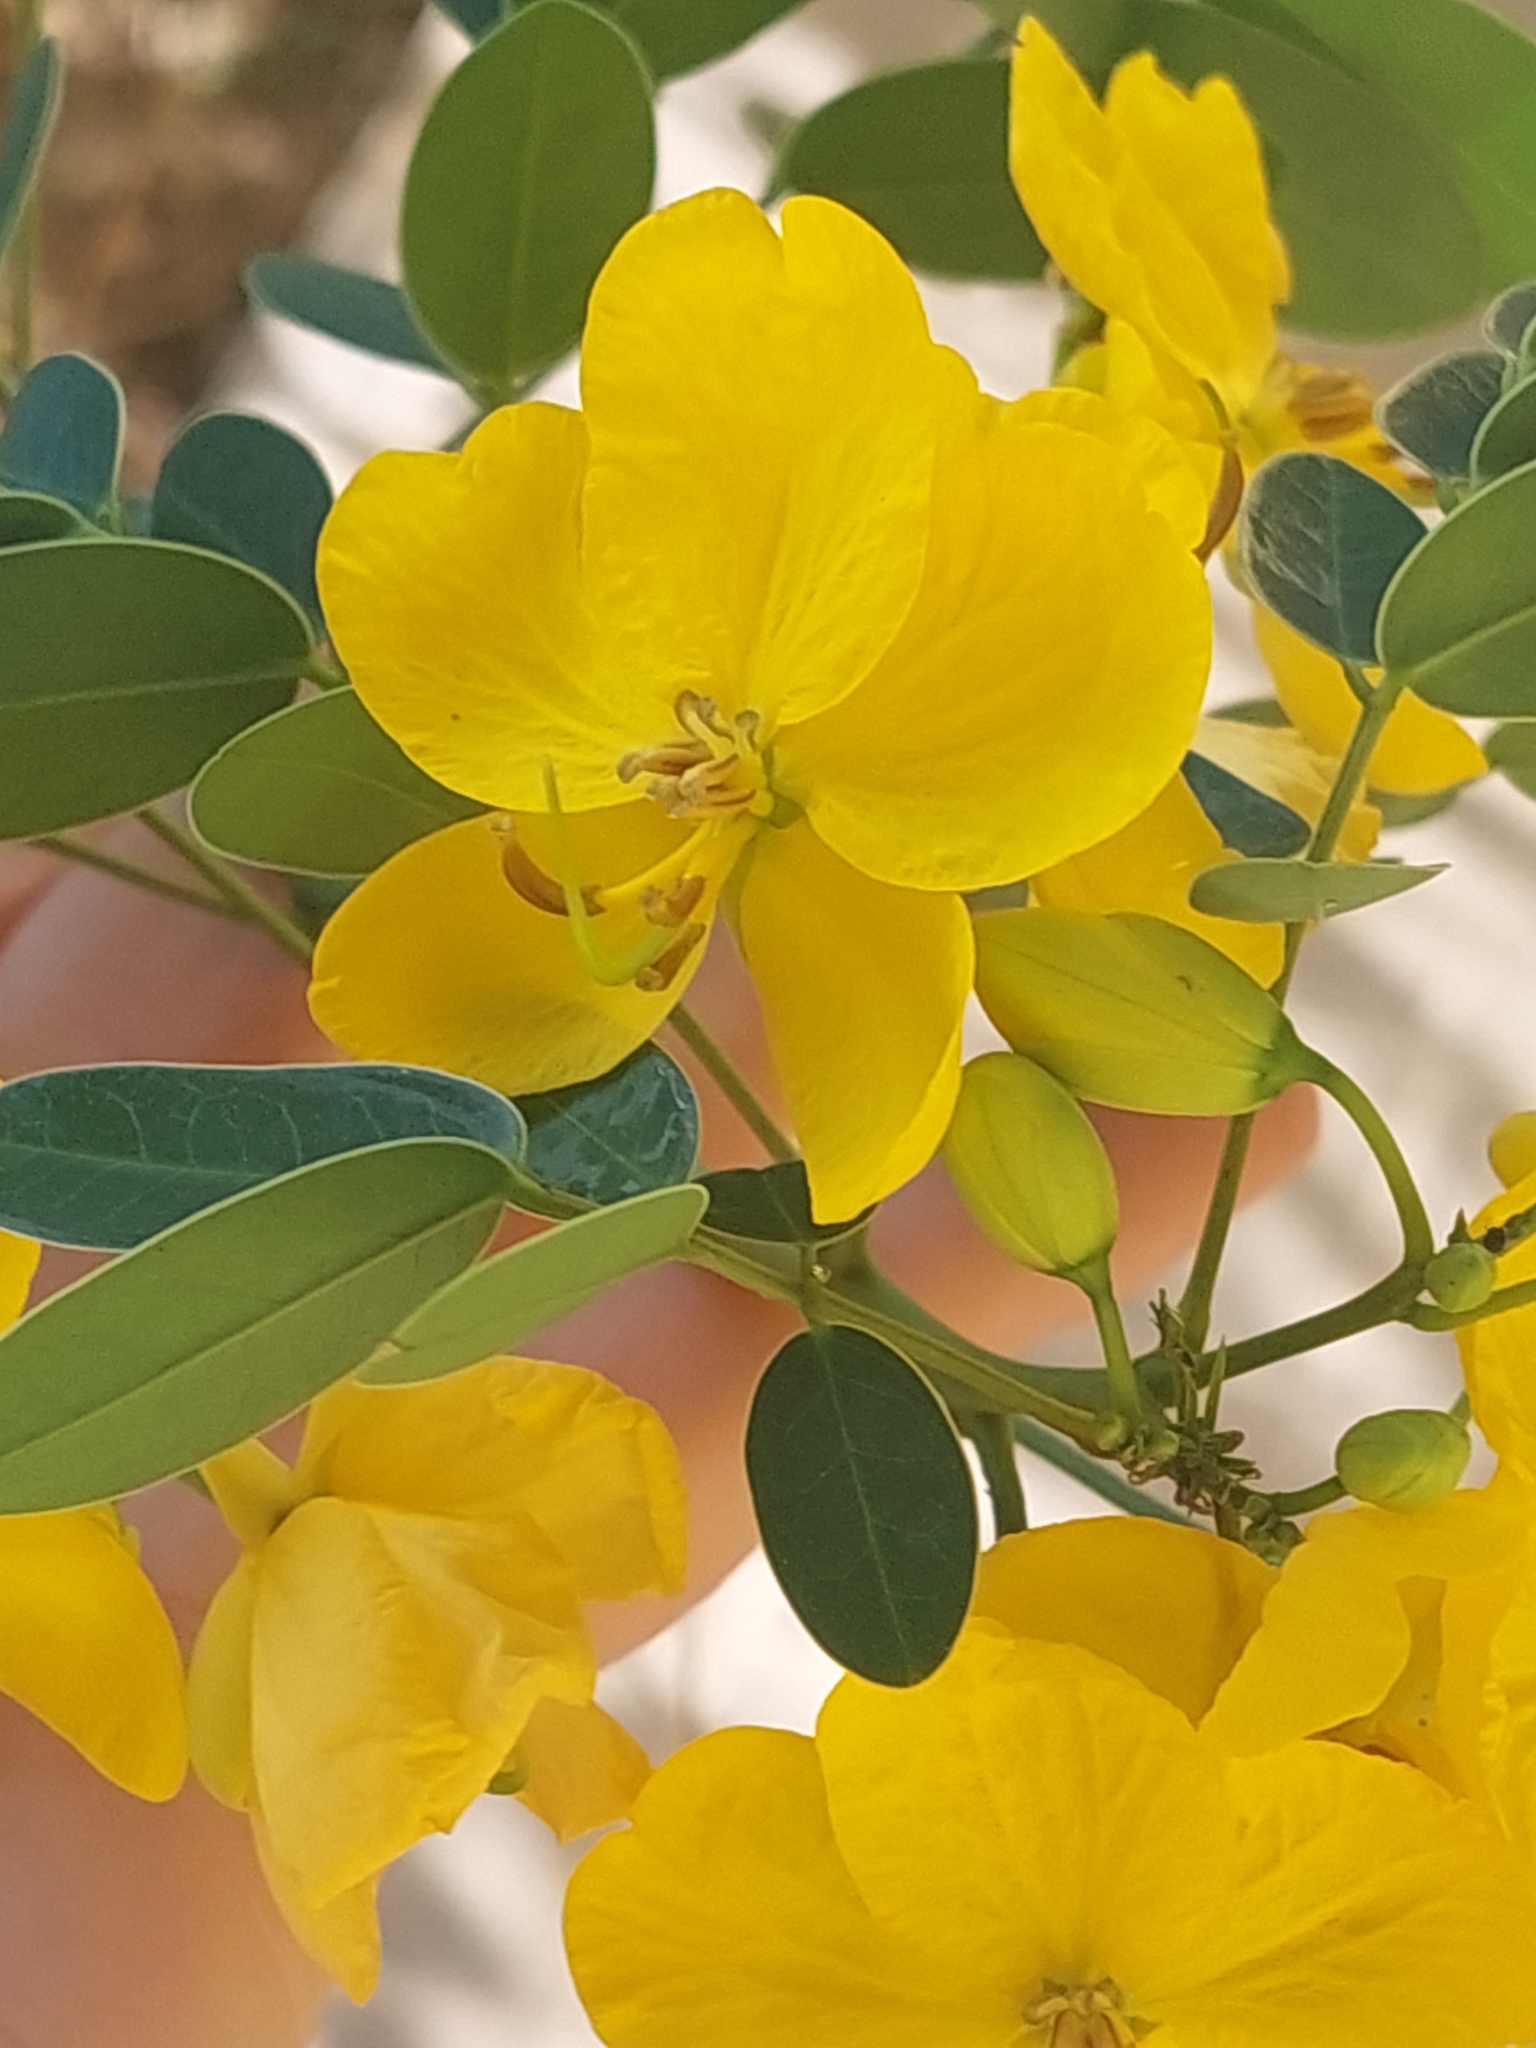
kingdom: Plantae
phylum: Tracheophyta
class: Magnoliopsida
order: Fabales
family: Fabaceae
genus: Senna
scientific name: Senna corymbosa
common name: Argentine senna
